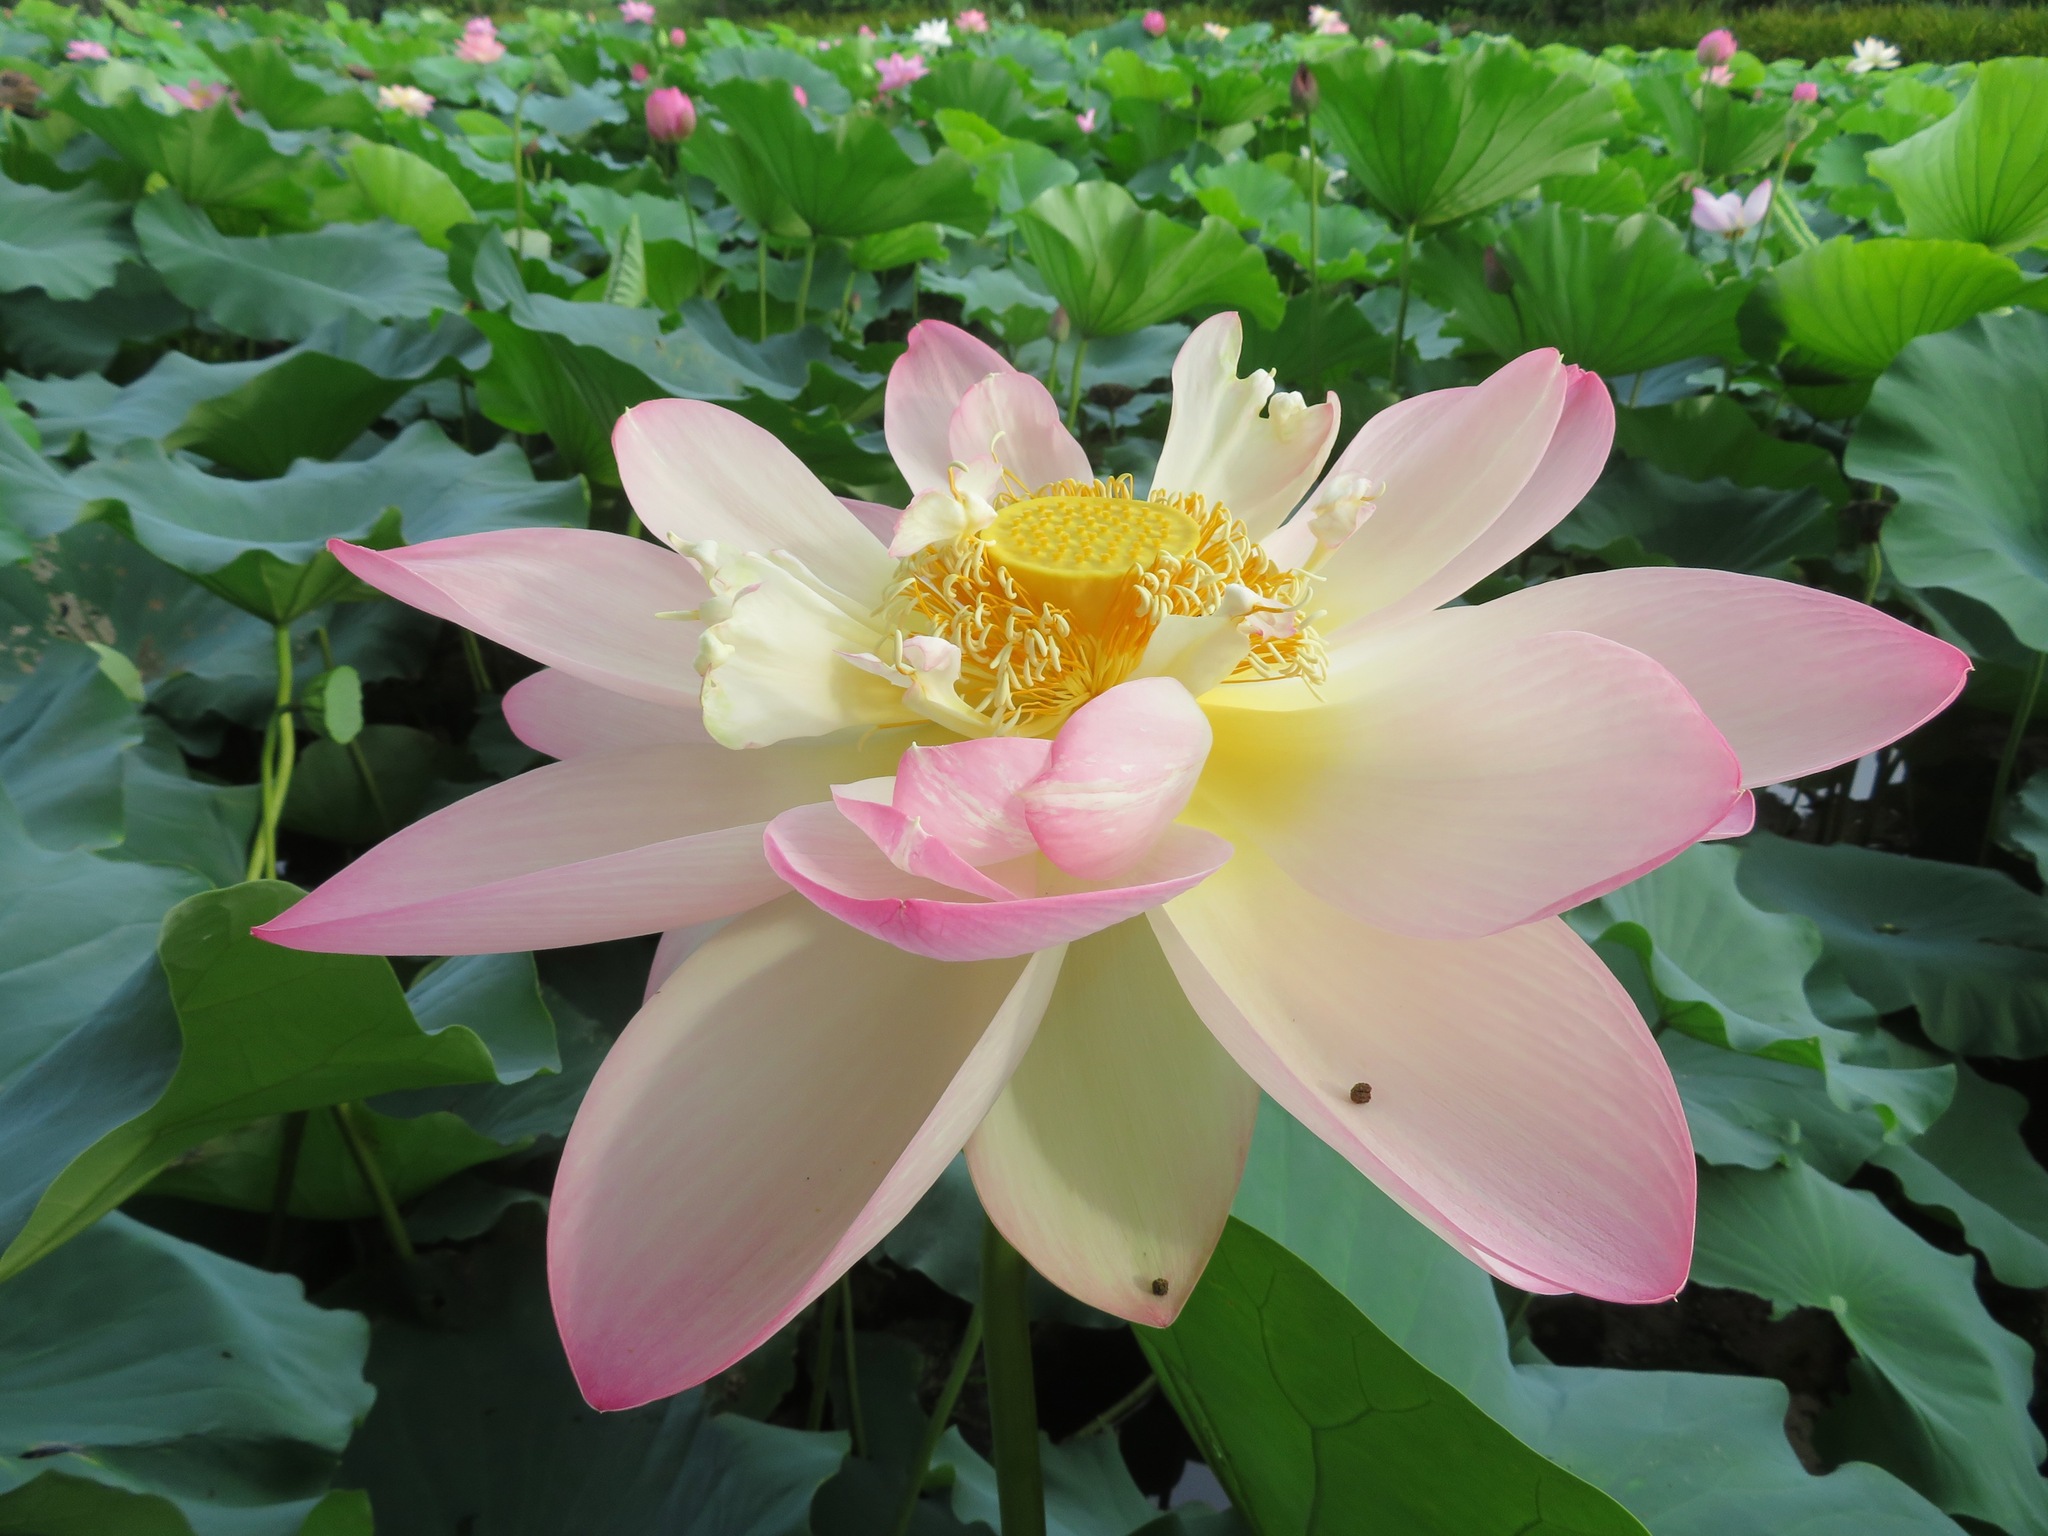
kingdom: Plantae
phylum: Tracheophyta
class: Magnoliopsida
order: Proteales
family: Nelumbonaceae
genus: Nelumbo
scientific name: Nelumbo nucifera
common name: Sacred lotus
